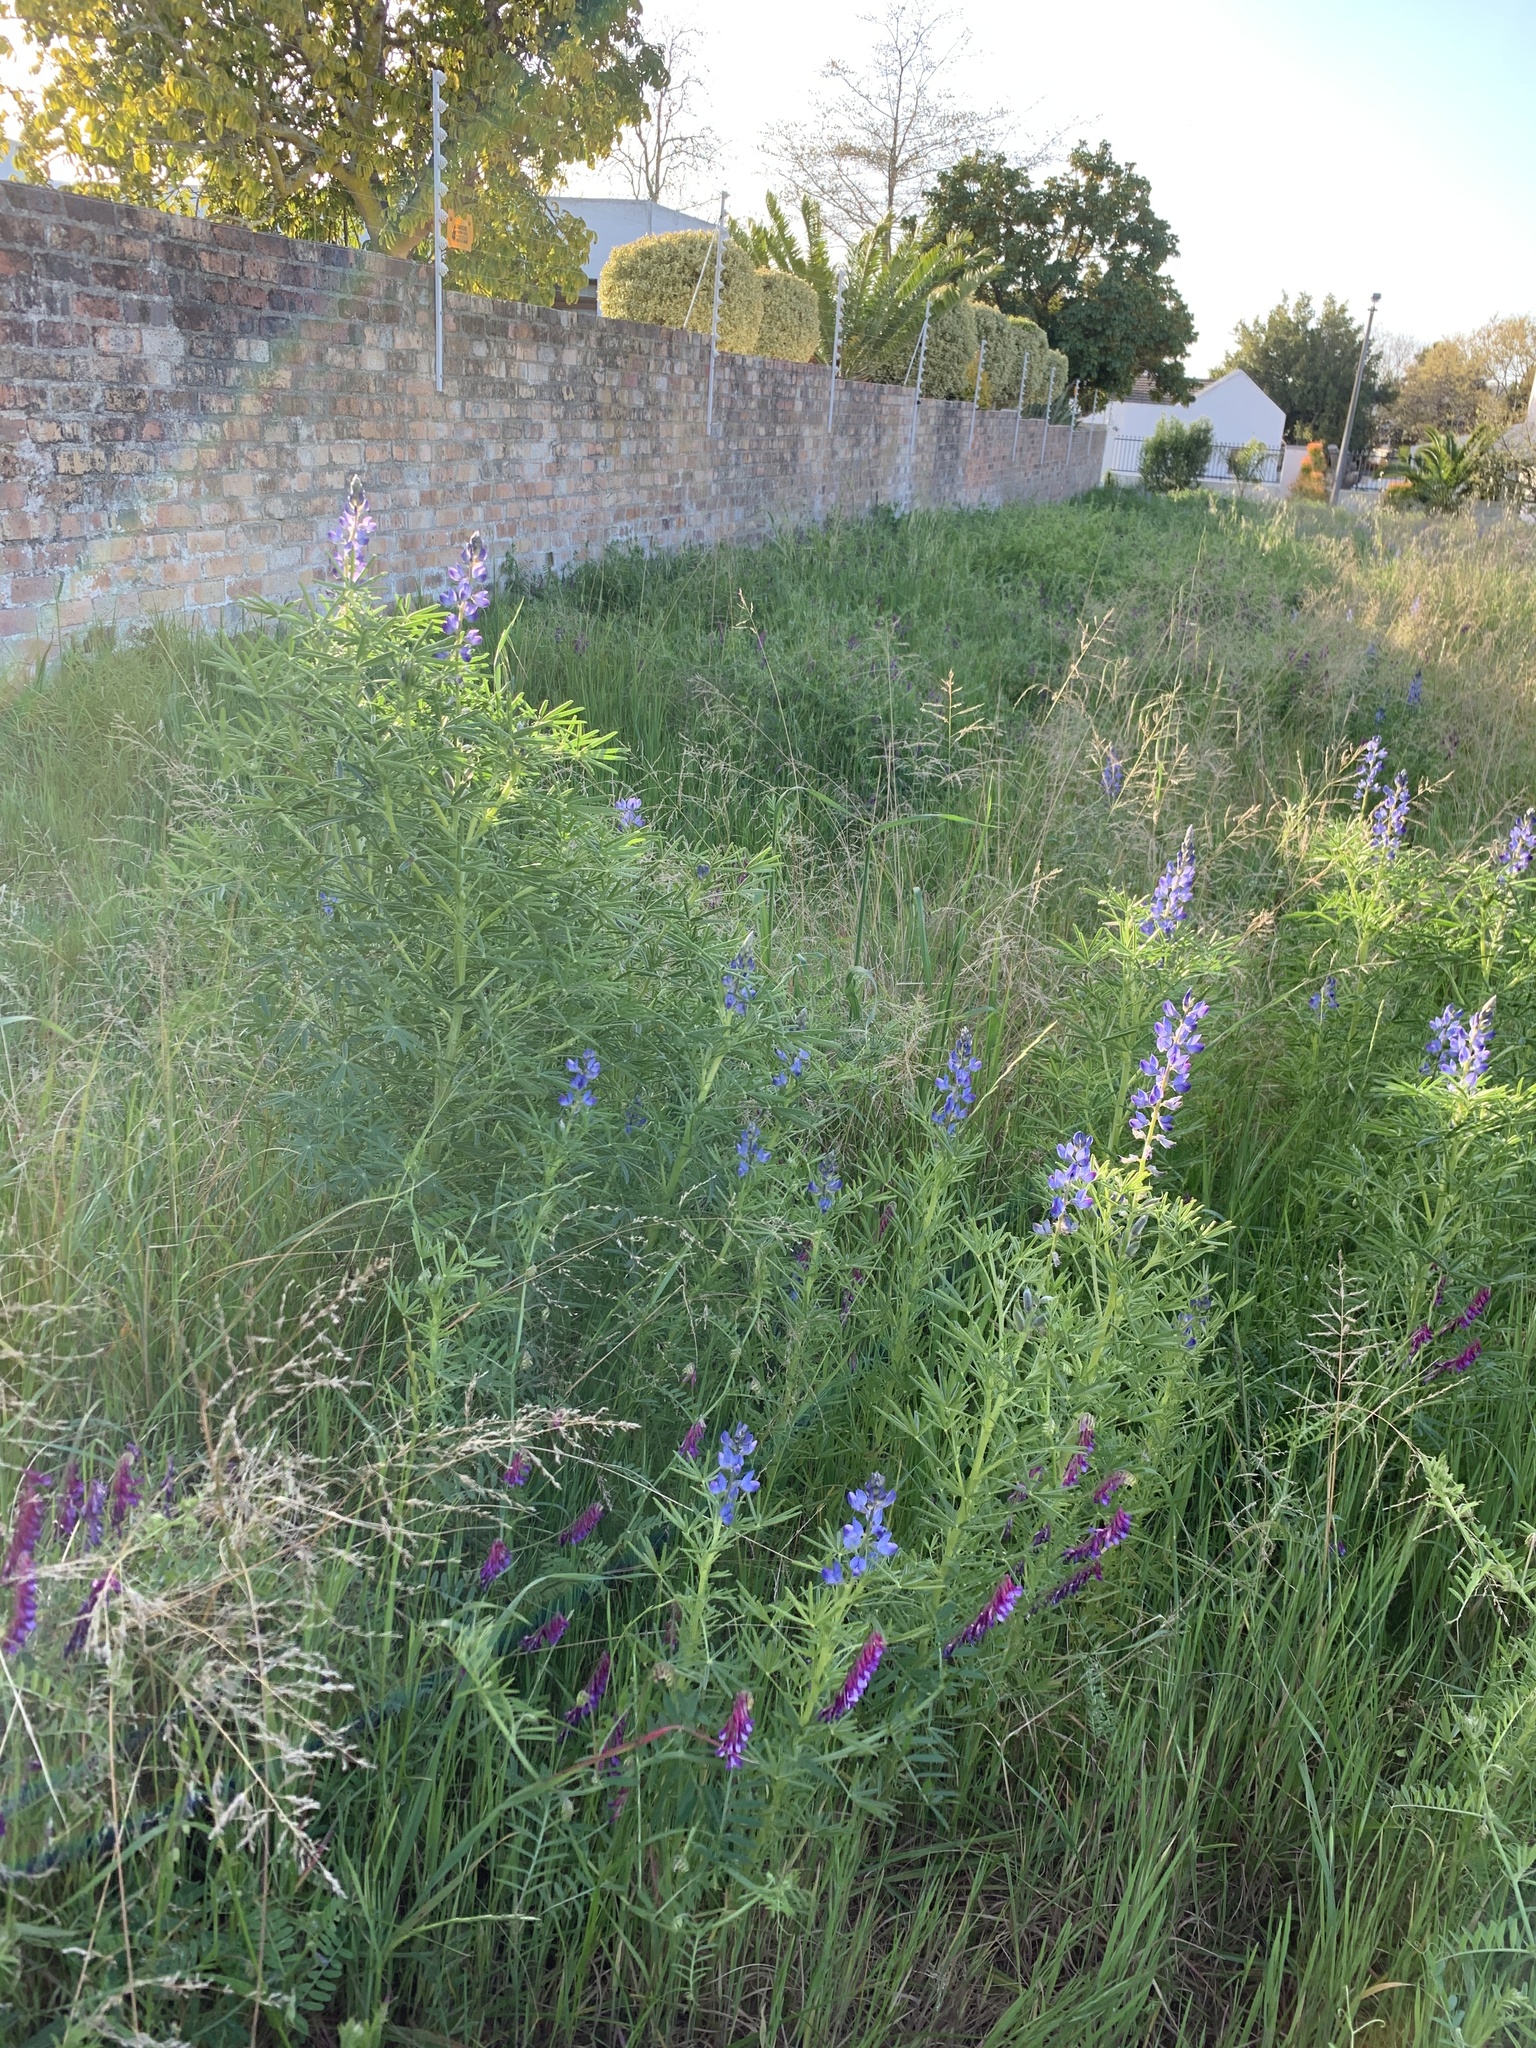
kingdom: Plantae
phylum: Tracheophyta
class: Magnoliopsida
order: Fabales
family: Fabaceae
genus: Lupinus
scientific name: Lupinus angustifolius
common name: Narrow-leaved lupin
